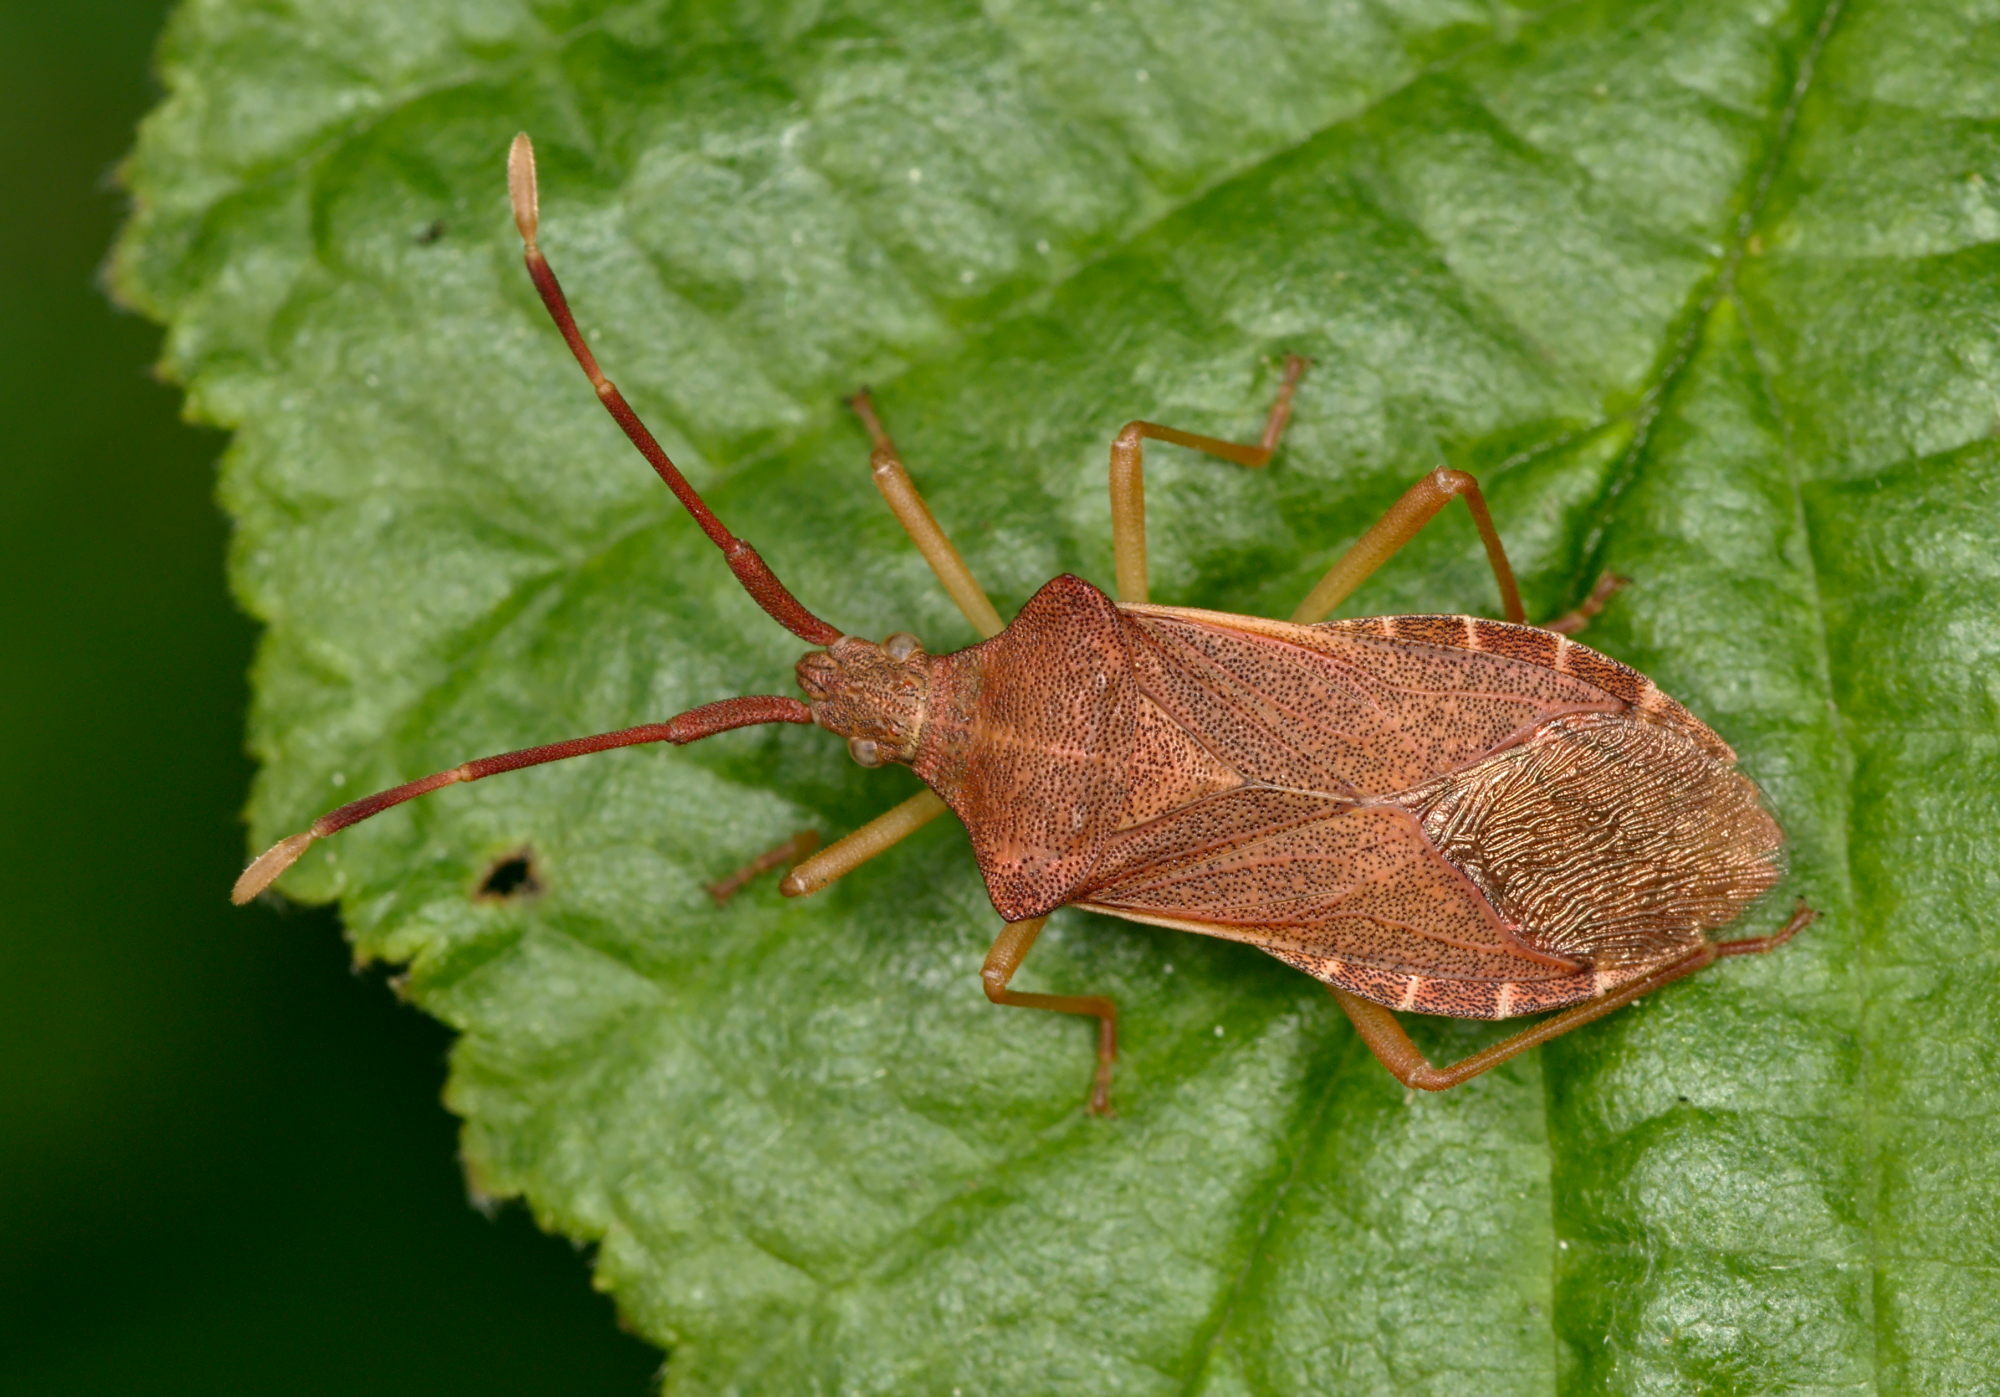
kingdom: Animalia
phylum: Arthropoda
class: Insecta
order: Hemiptera
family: Coreidae
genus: Gonocerus
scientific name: Gonocerus acuteangulatus
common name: Box bug
